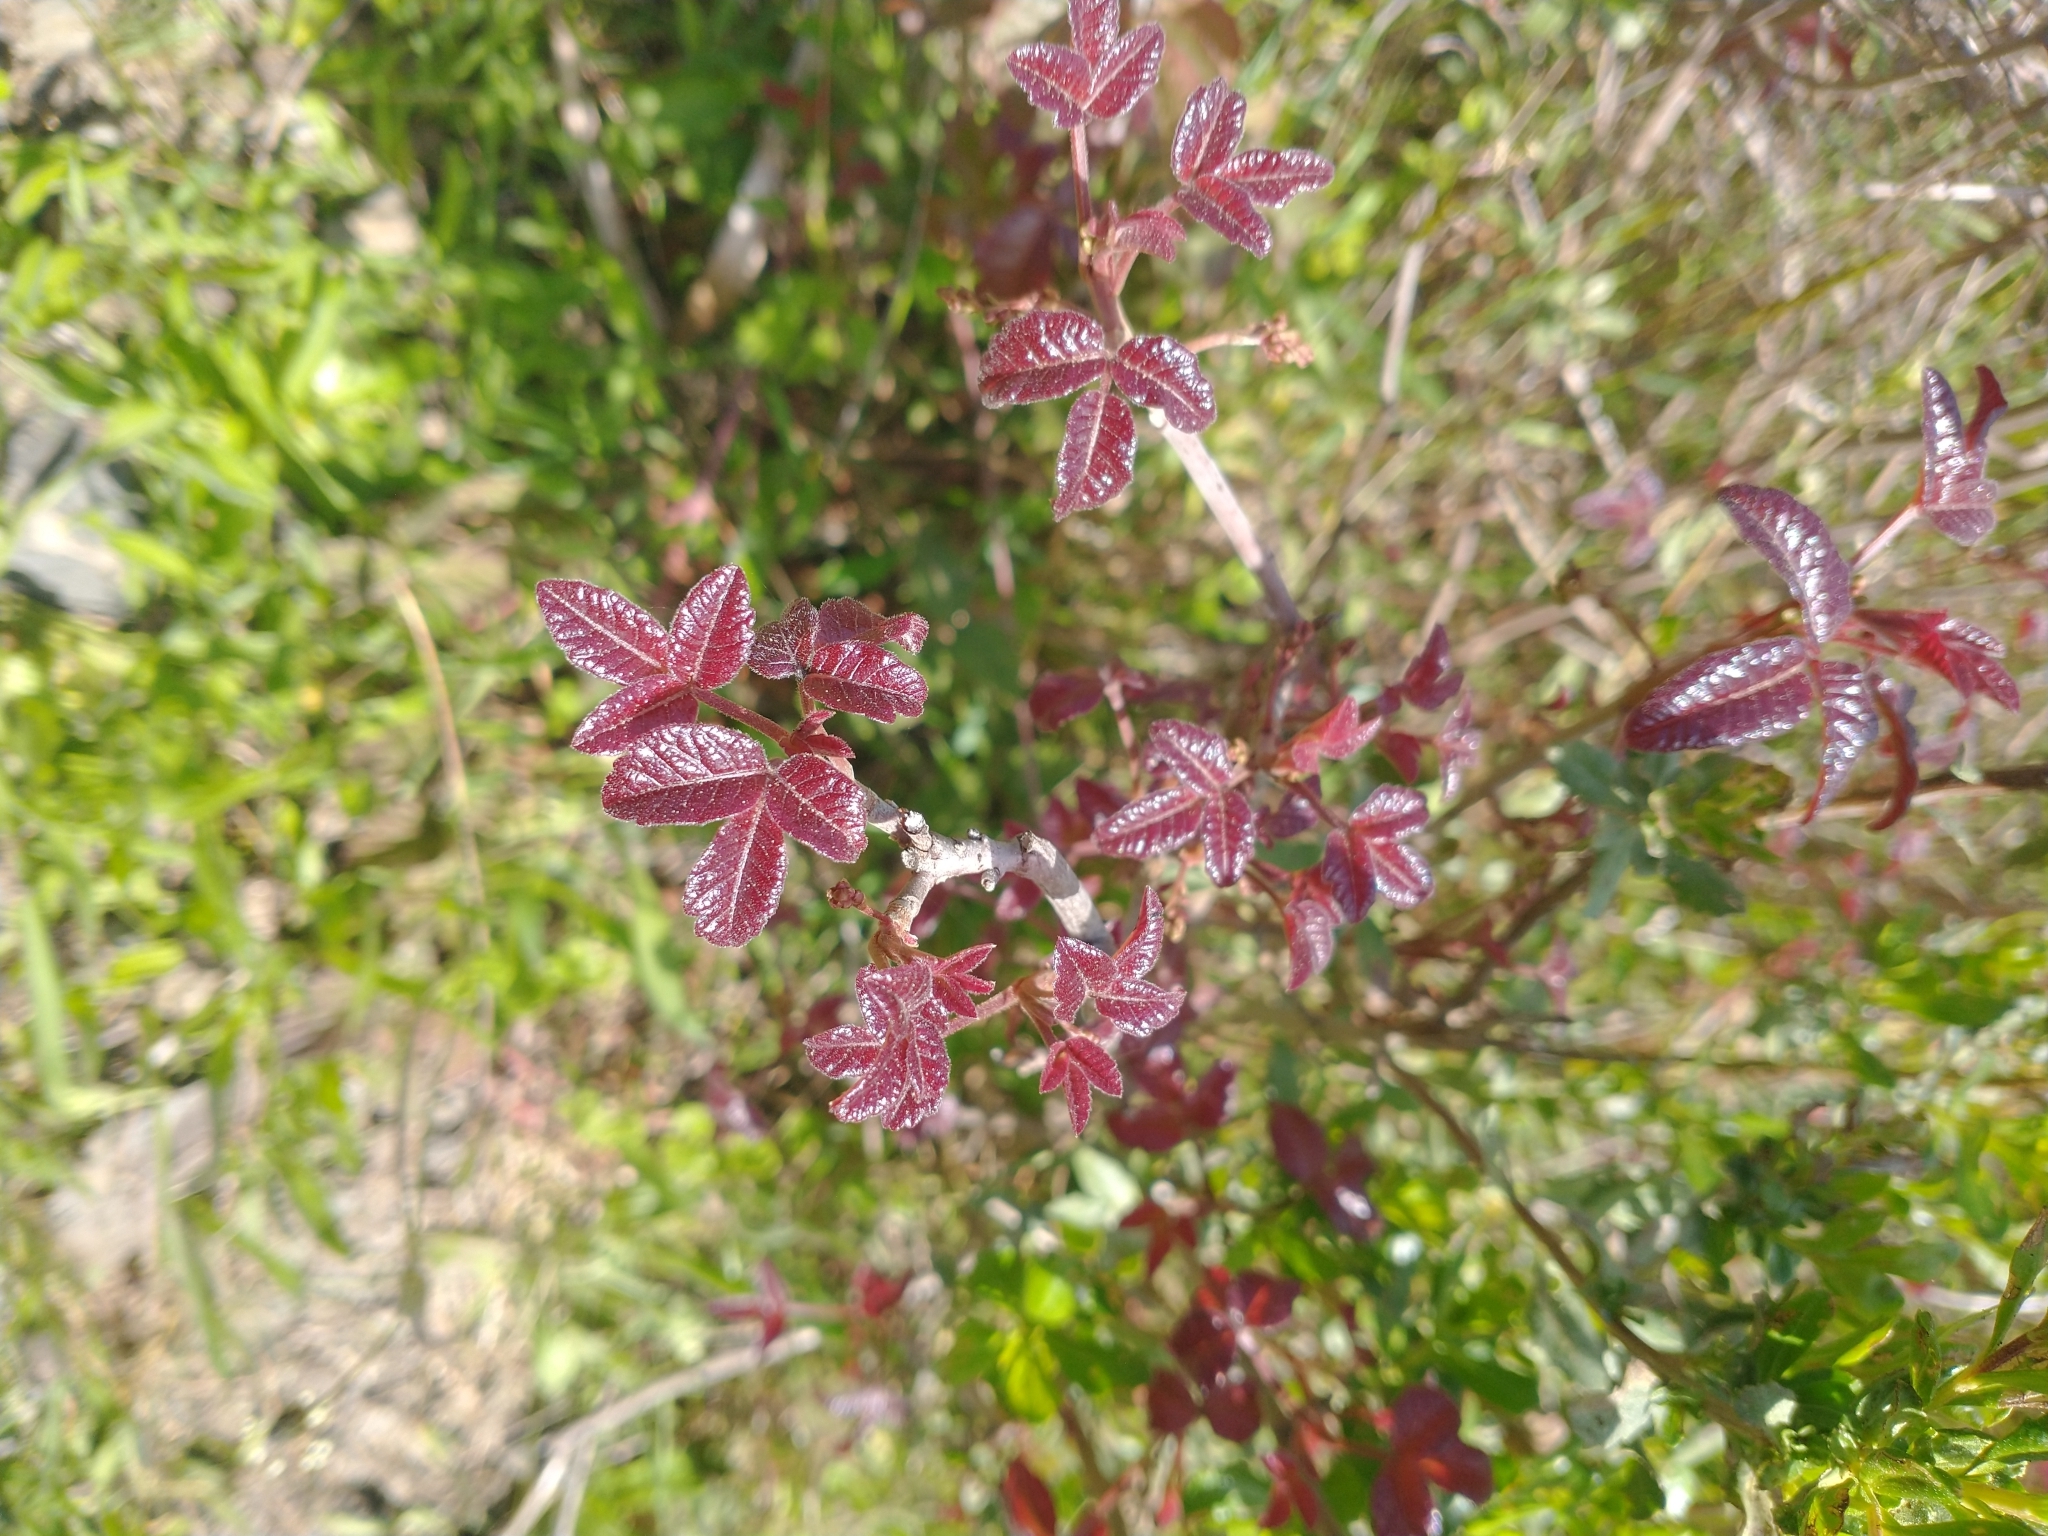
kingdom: Plantae
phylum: Tracheophyta
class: Magnoliopsida
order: Sapindales
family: Anacardiaceae
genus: Toxicodendron
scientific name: Toxicodendron diversilobum
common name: Pacific poison-oak
